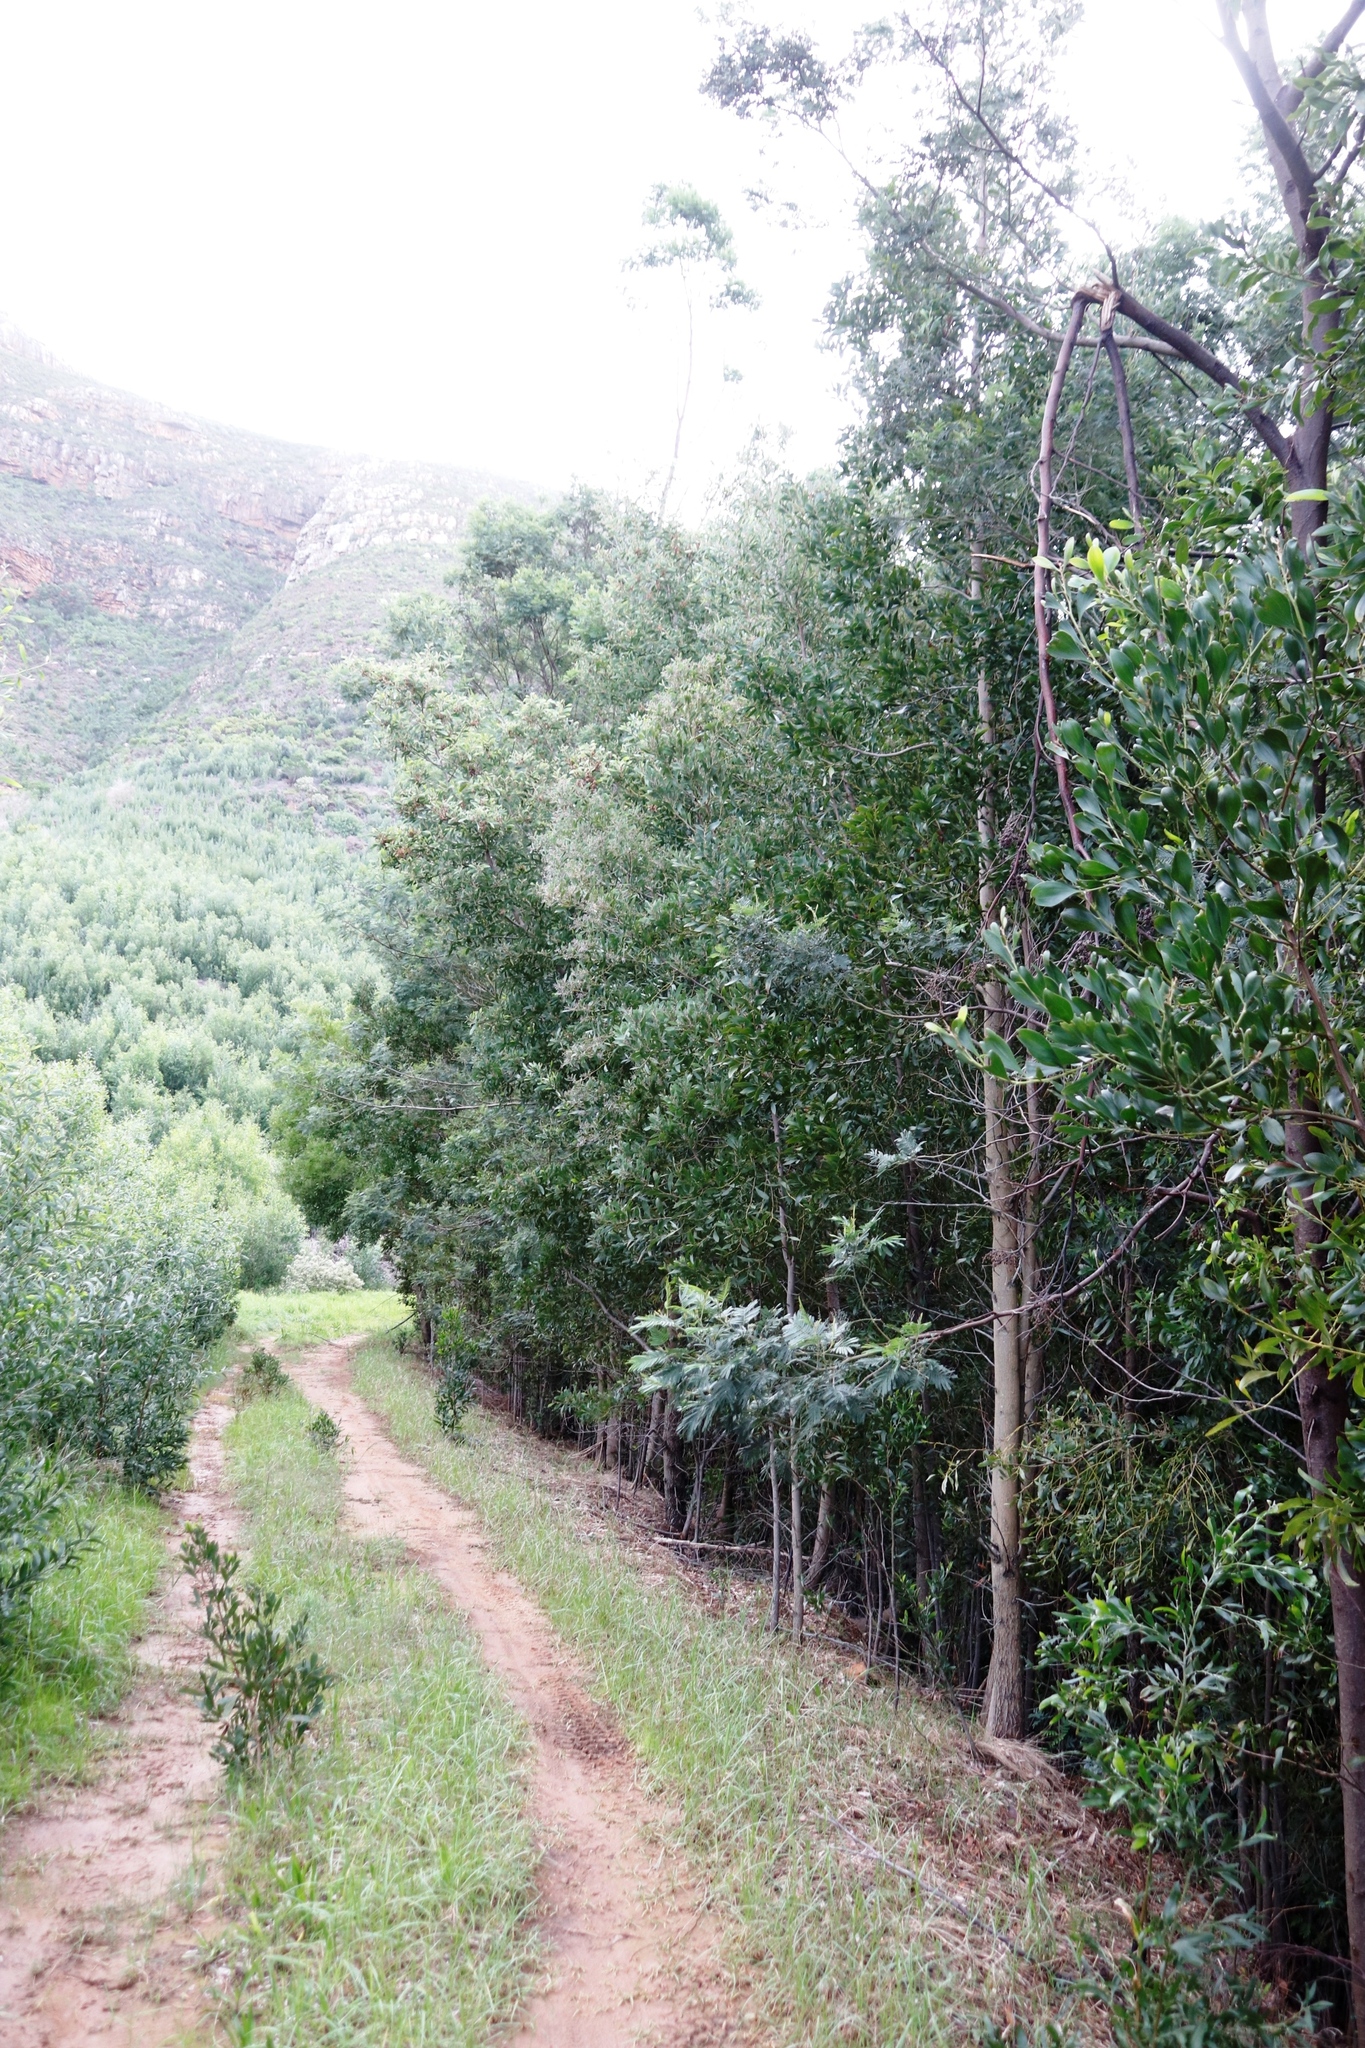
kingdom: Plantae
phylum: Tracheophyta
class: Magnoliopsida
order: Fabales
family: Fabaceae
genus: Acacia
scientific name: Acacia melanoxylon
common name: Blackwood
